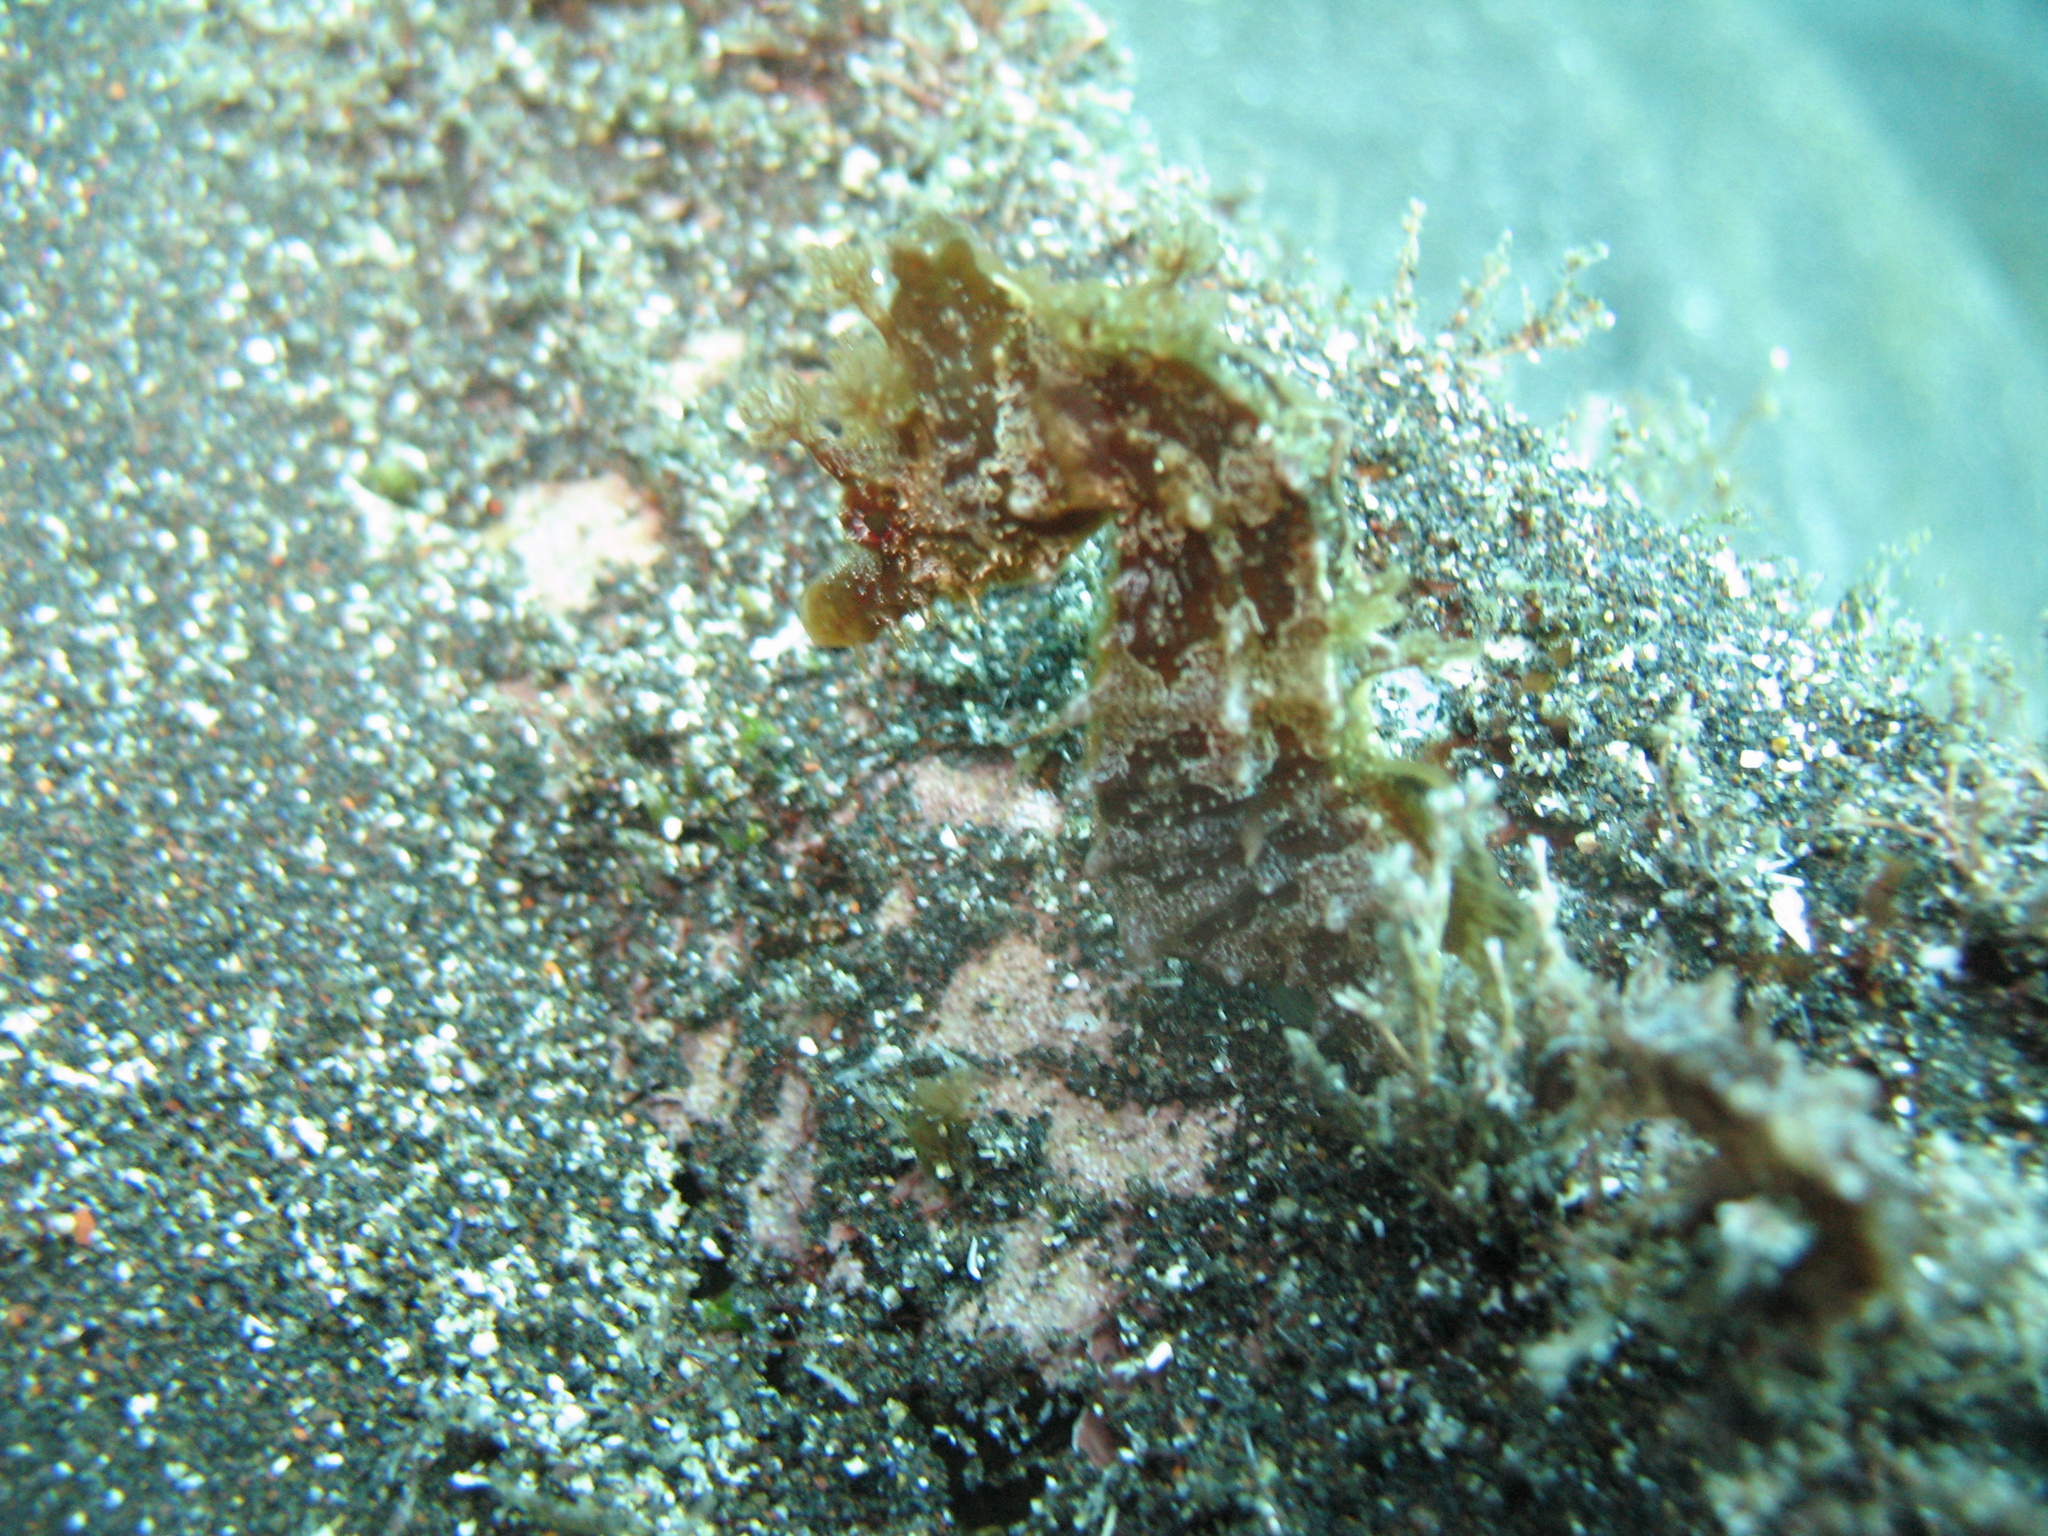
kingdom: Animalia
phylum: Chordata
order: Syngnathiformes
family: Syngnathidae
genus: Hippocampus
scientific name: Hippocampus hippocampus
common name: Short-snouted seahorse
